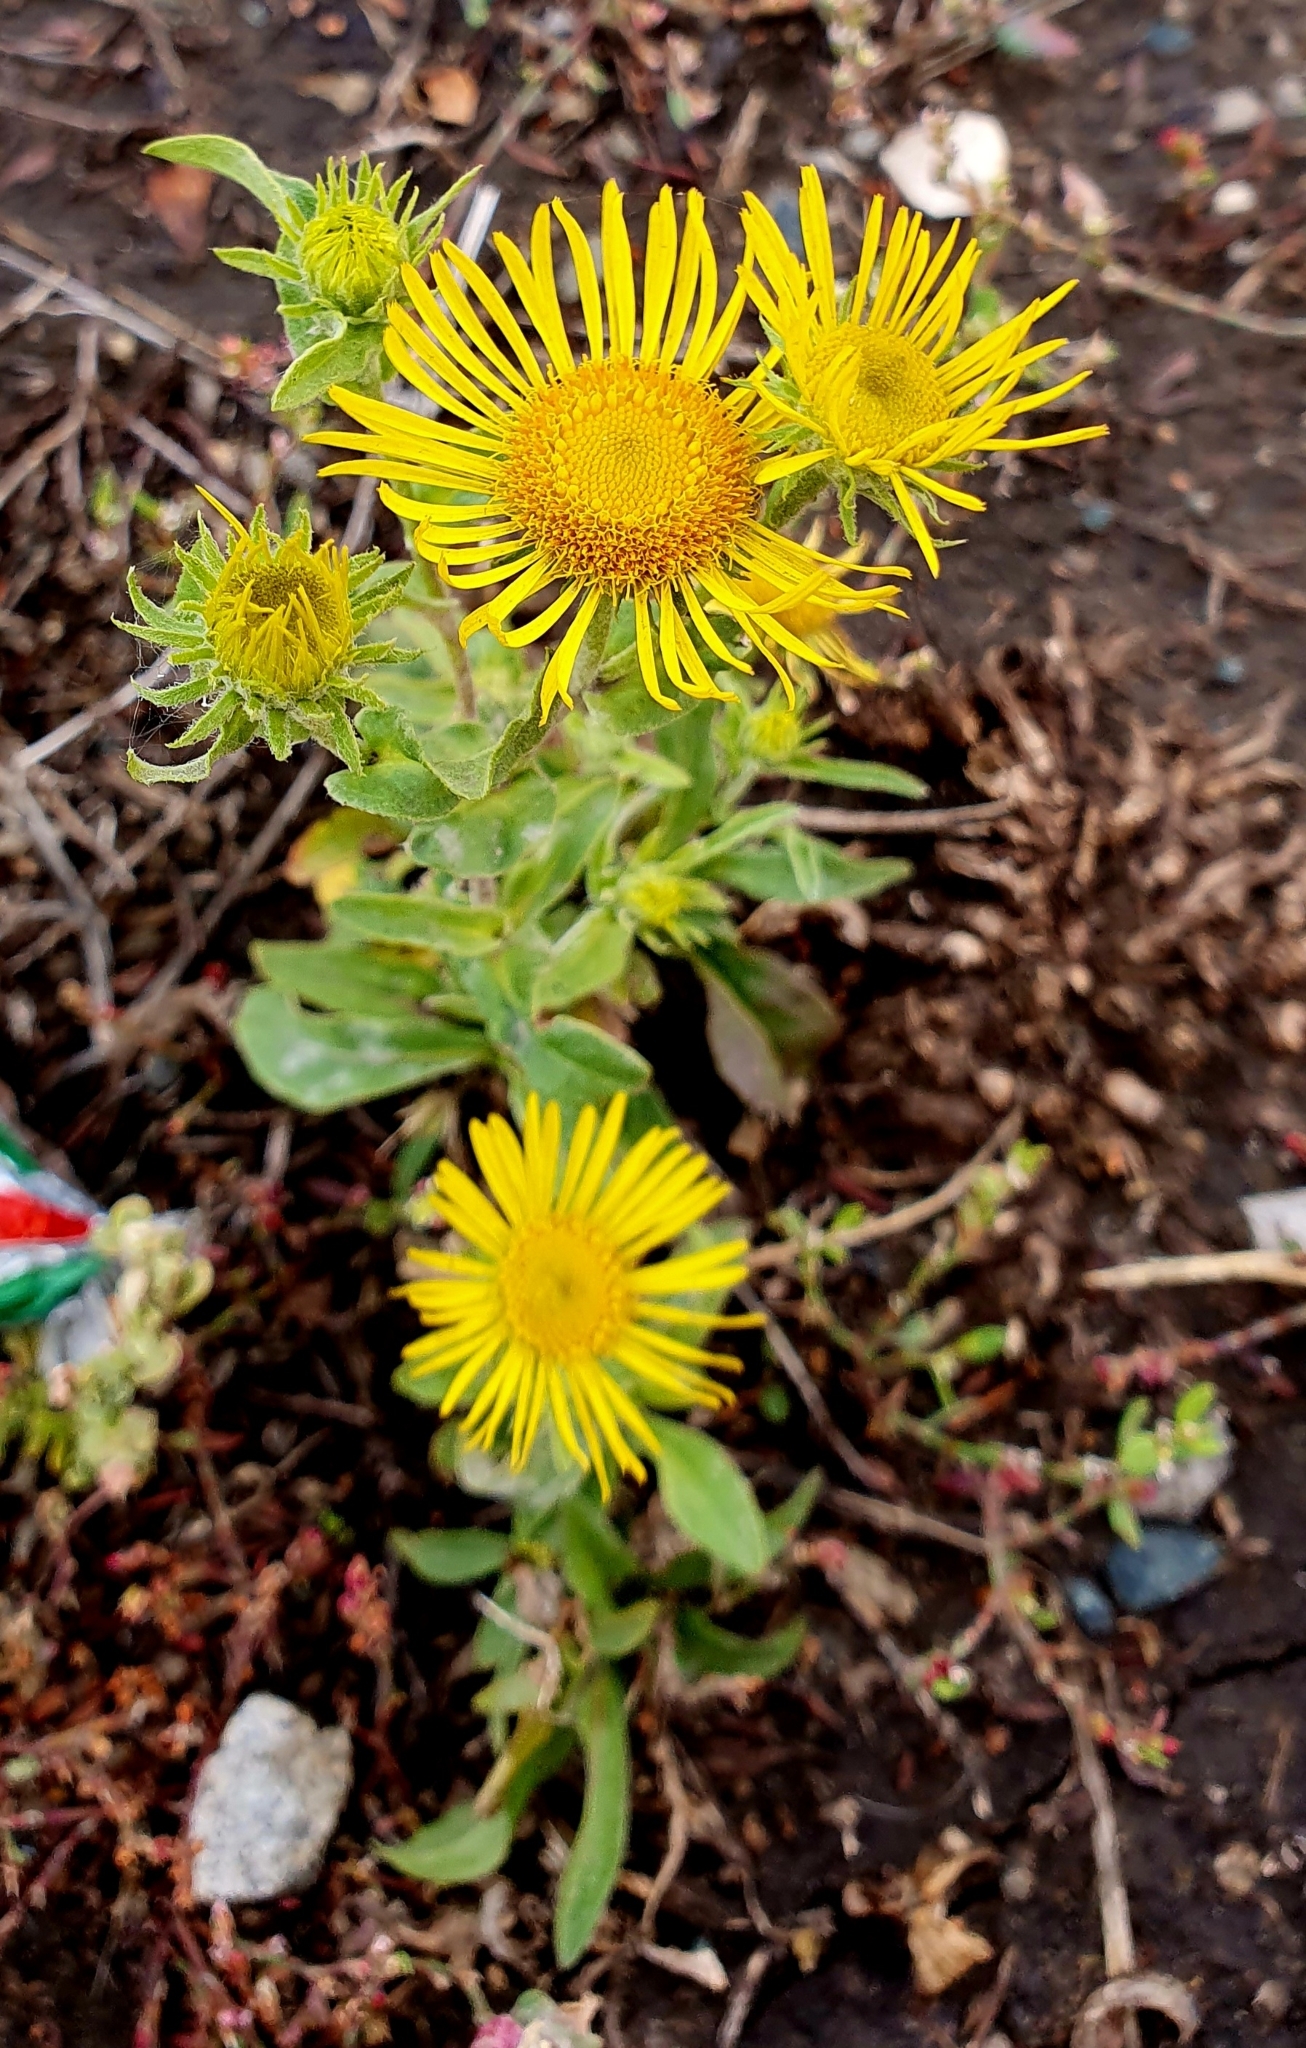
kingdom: Plantae
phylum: Tracheophyta
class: Magnoliopsida
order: Asterales
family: Asteraceae
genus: Pentanema
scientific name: Pentanema britannicum
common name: British elecampane
